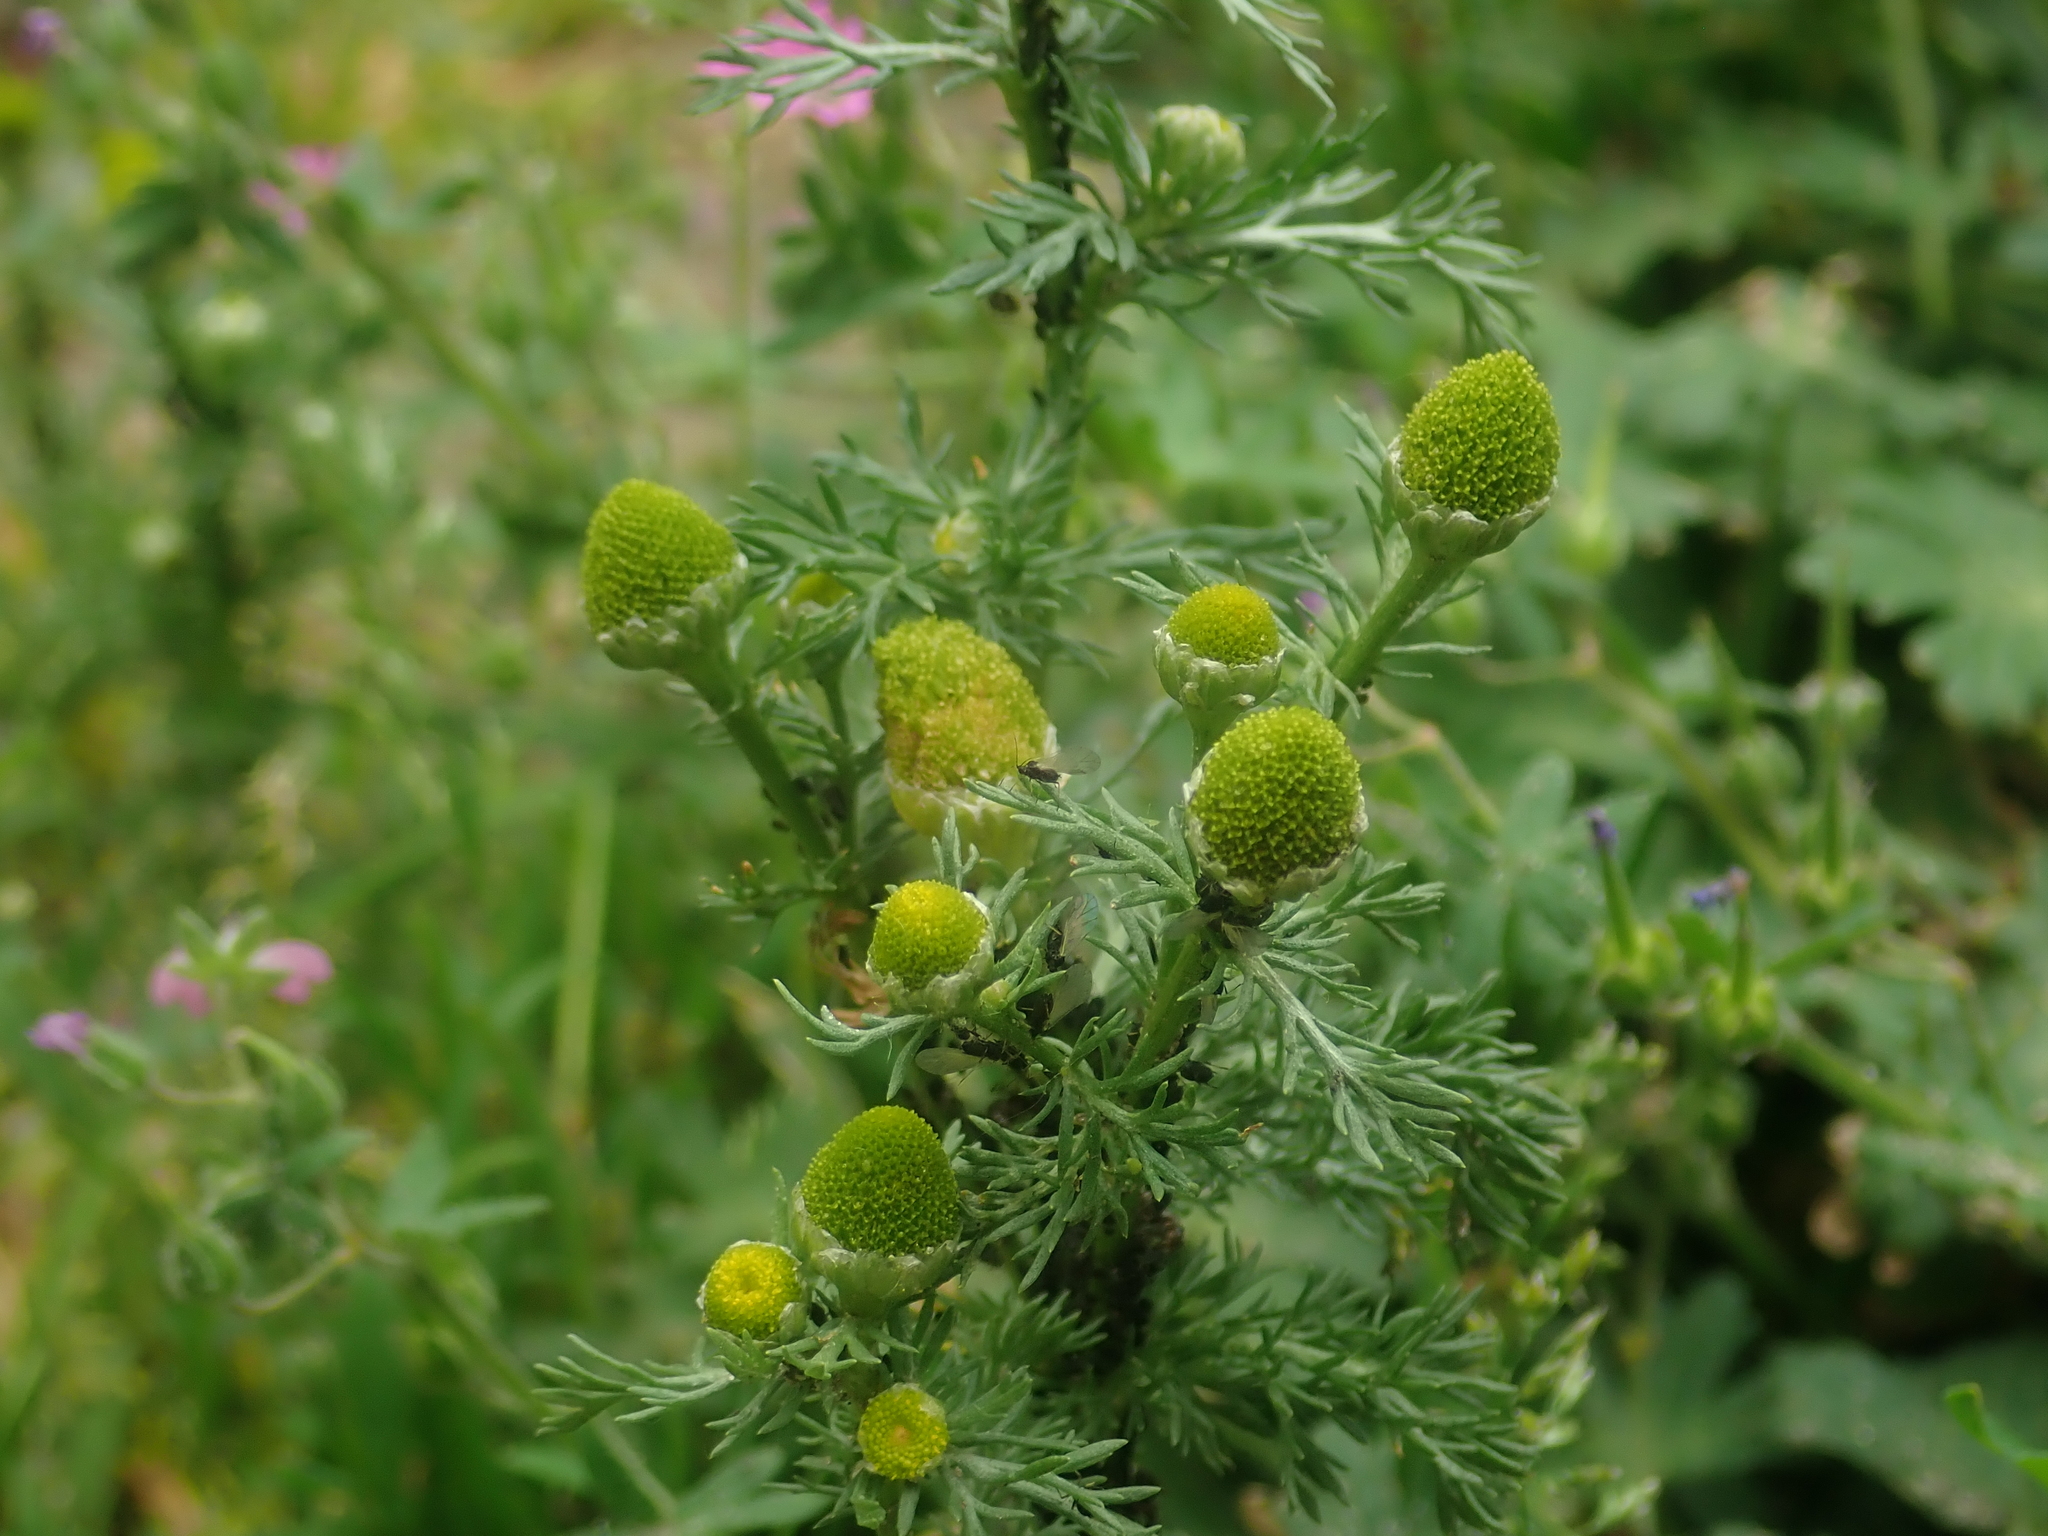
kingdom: Plantae
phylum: Tracheophyta
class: Magnoliopsida
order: Asterales
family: Asteraceae
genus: Matricaria
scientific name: Matricaria discoidea
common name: Disc mayweed
